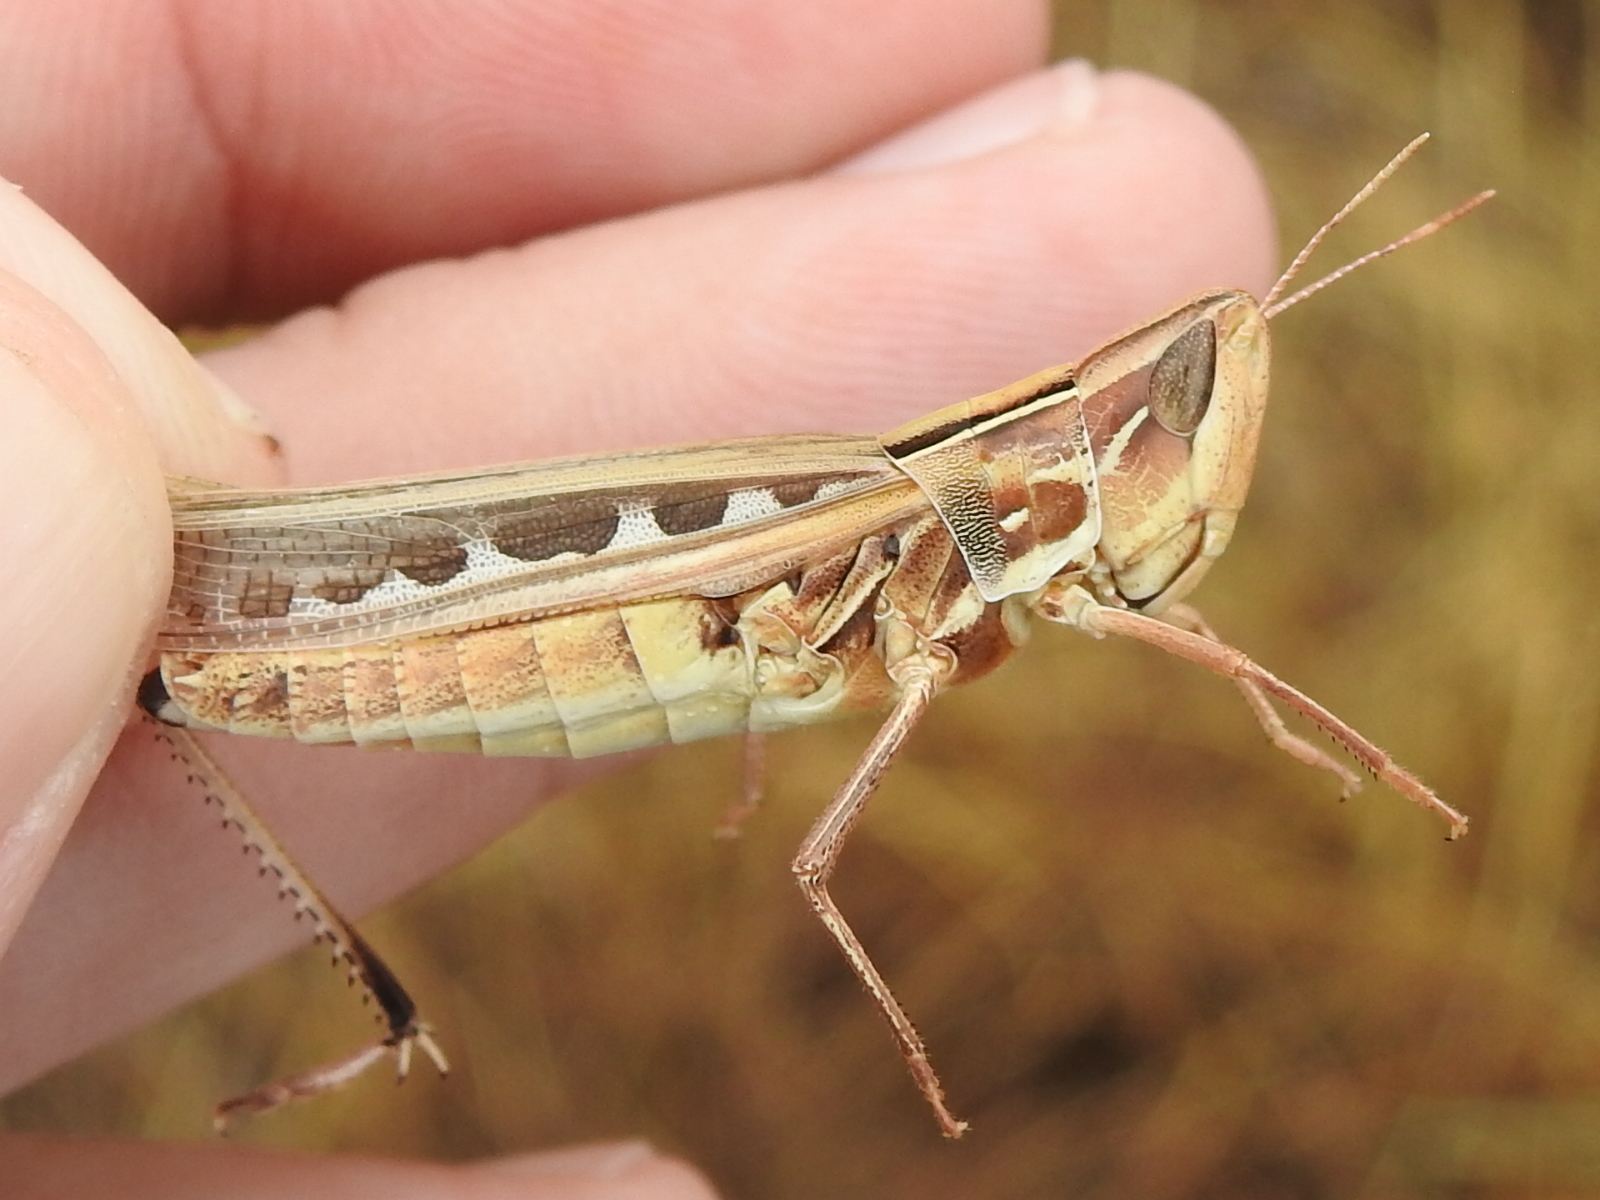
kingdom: Animalia
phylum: Arthropoda
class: Insecta
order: Orthoptera
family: Acrididae
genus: Syrbula
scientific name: Syrbula admirabilis
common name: Handsome grasshopper
